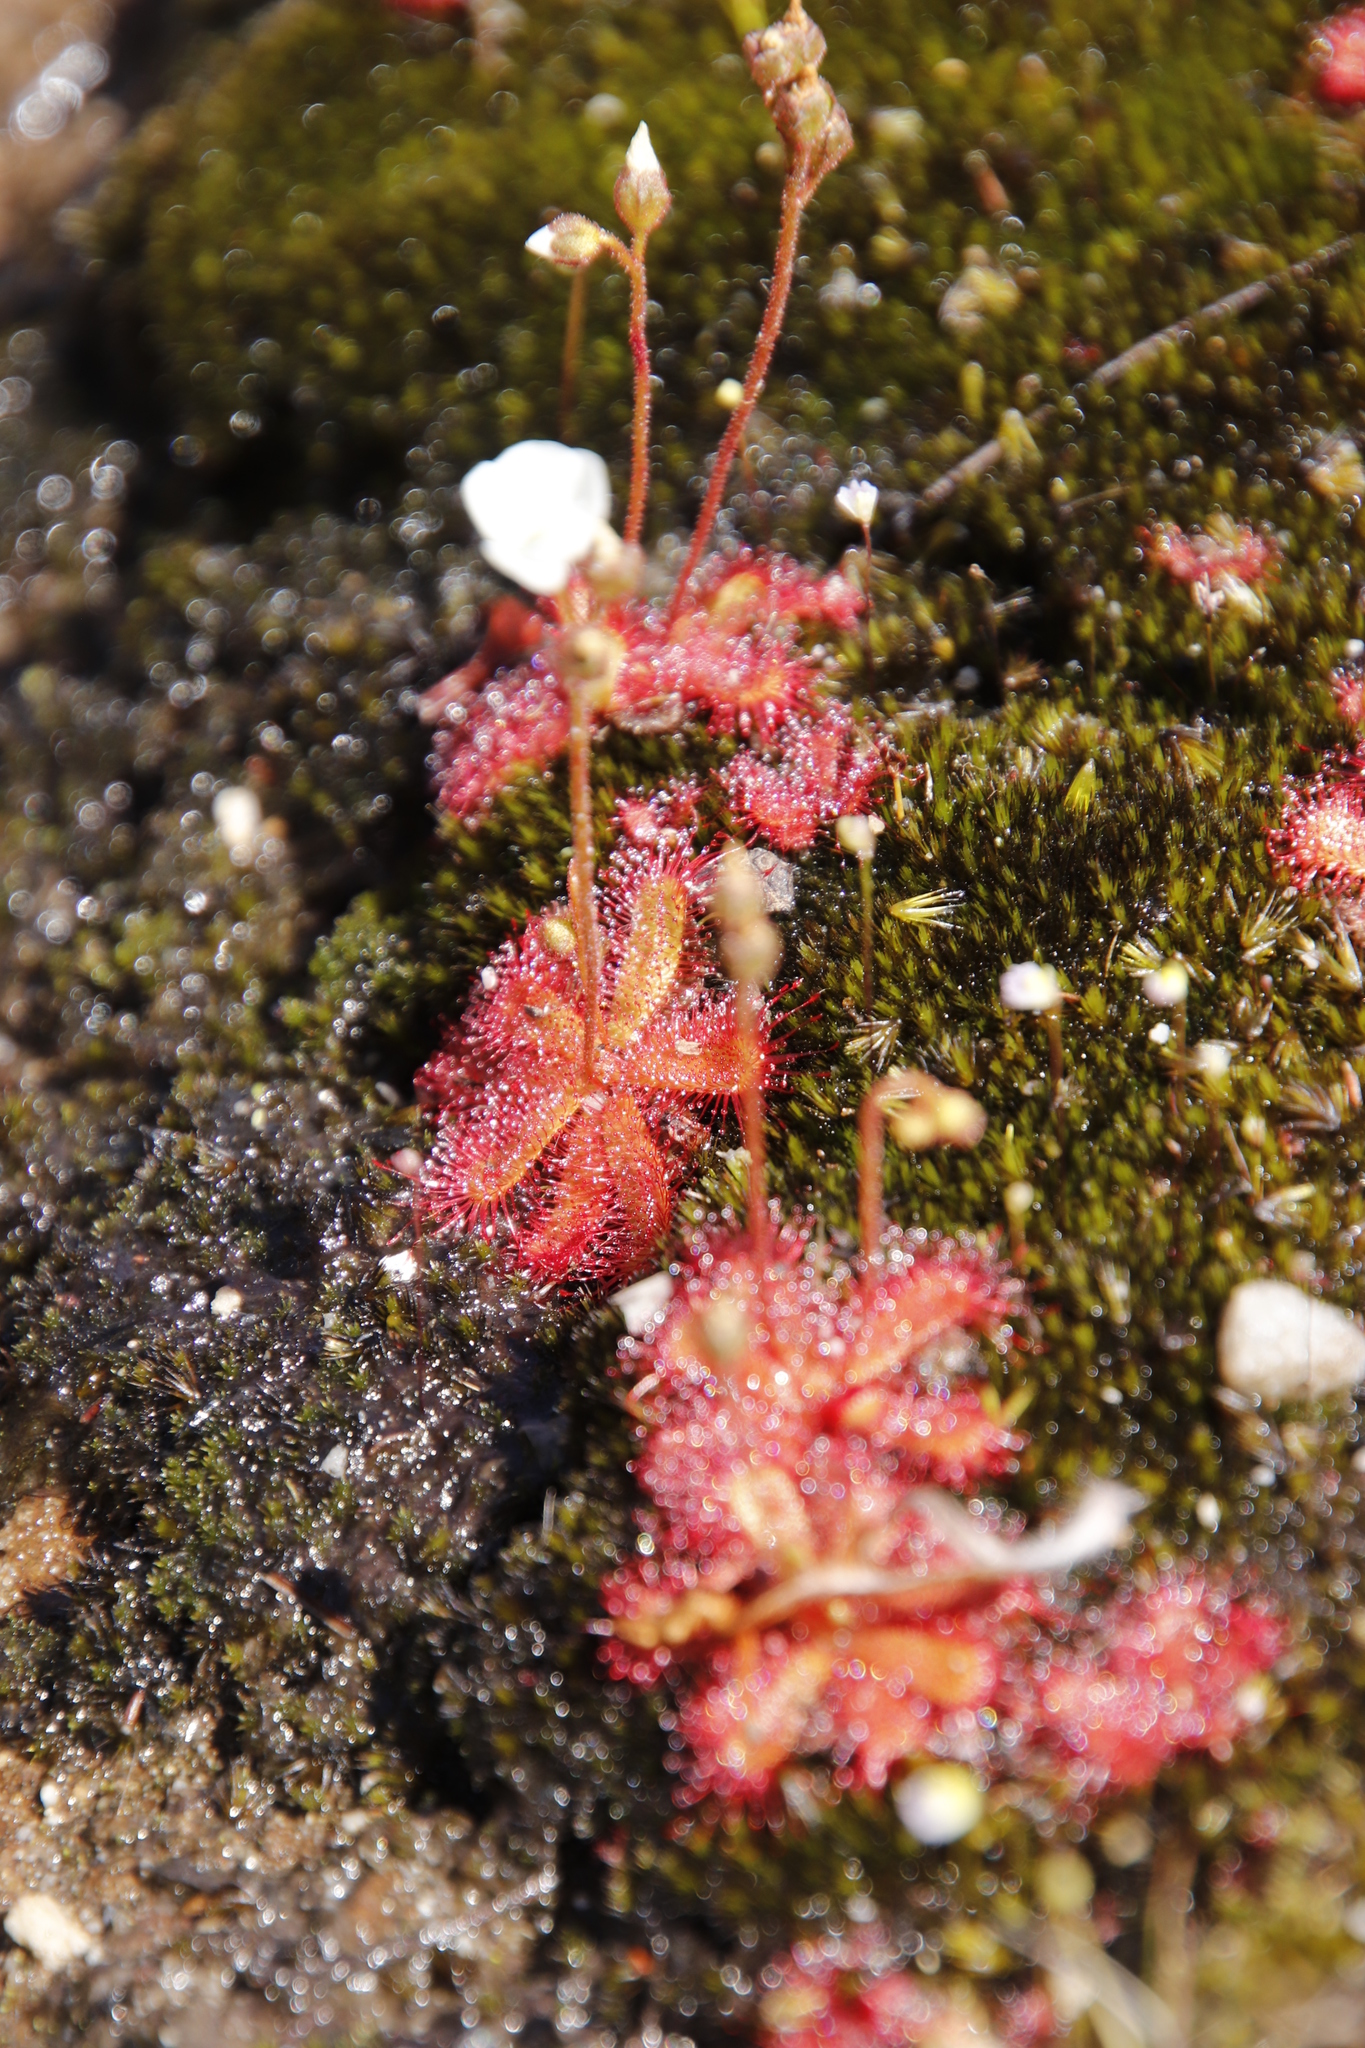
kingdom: Plantae
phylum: Tracheophyta
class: Magnoliopsida
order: Caryophyllales
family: Droseraceae
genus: Drosera
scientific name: Drosera trinervia
